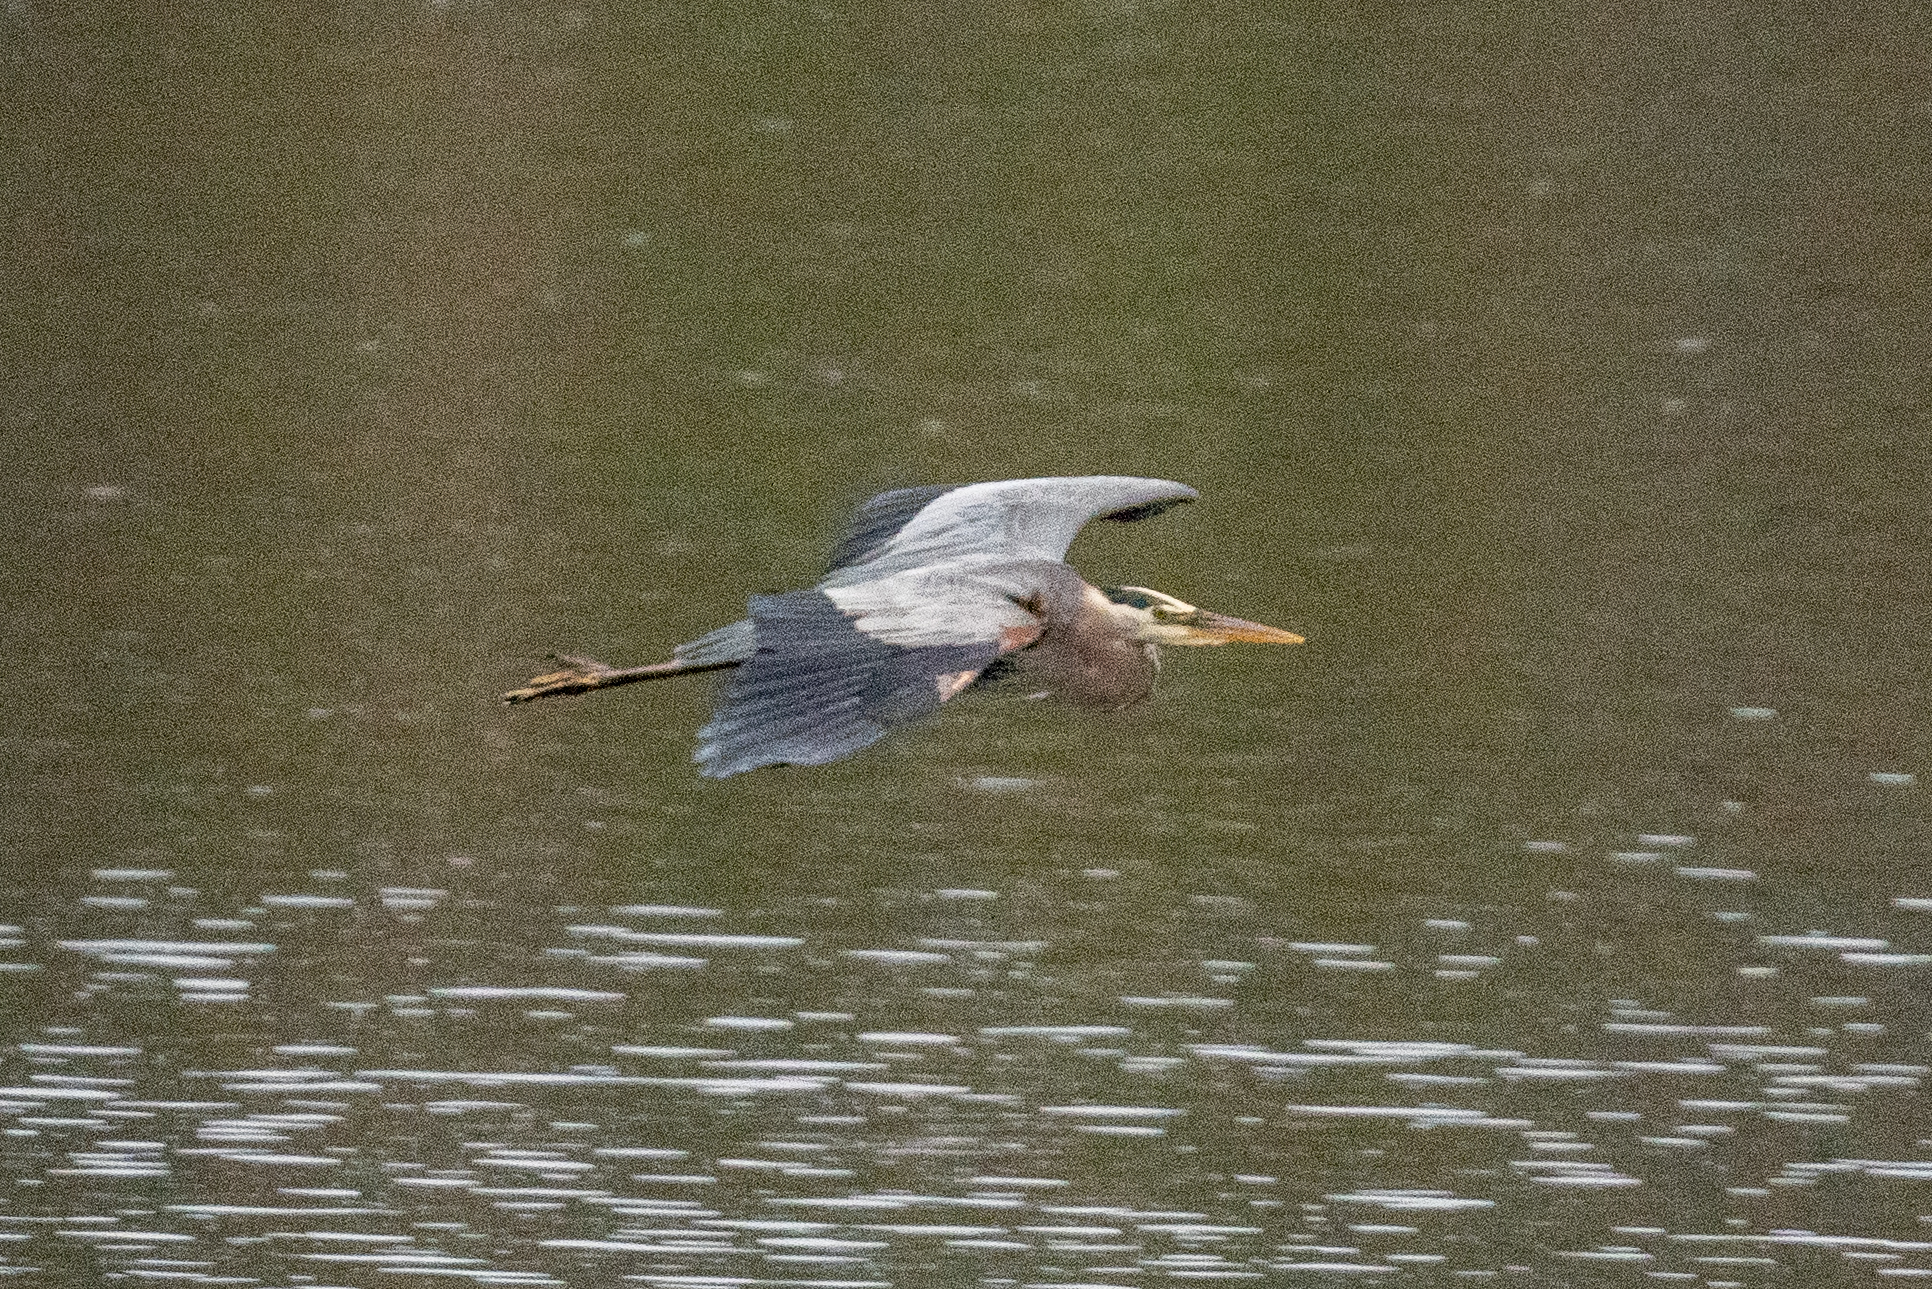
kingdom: Animalia
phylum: Chordata
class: Aves
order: Pelecaniformes
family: Ardeidae
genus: Ardea
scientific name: Ardea herodias
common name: Great blue heron
